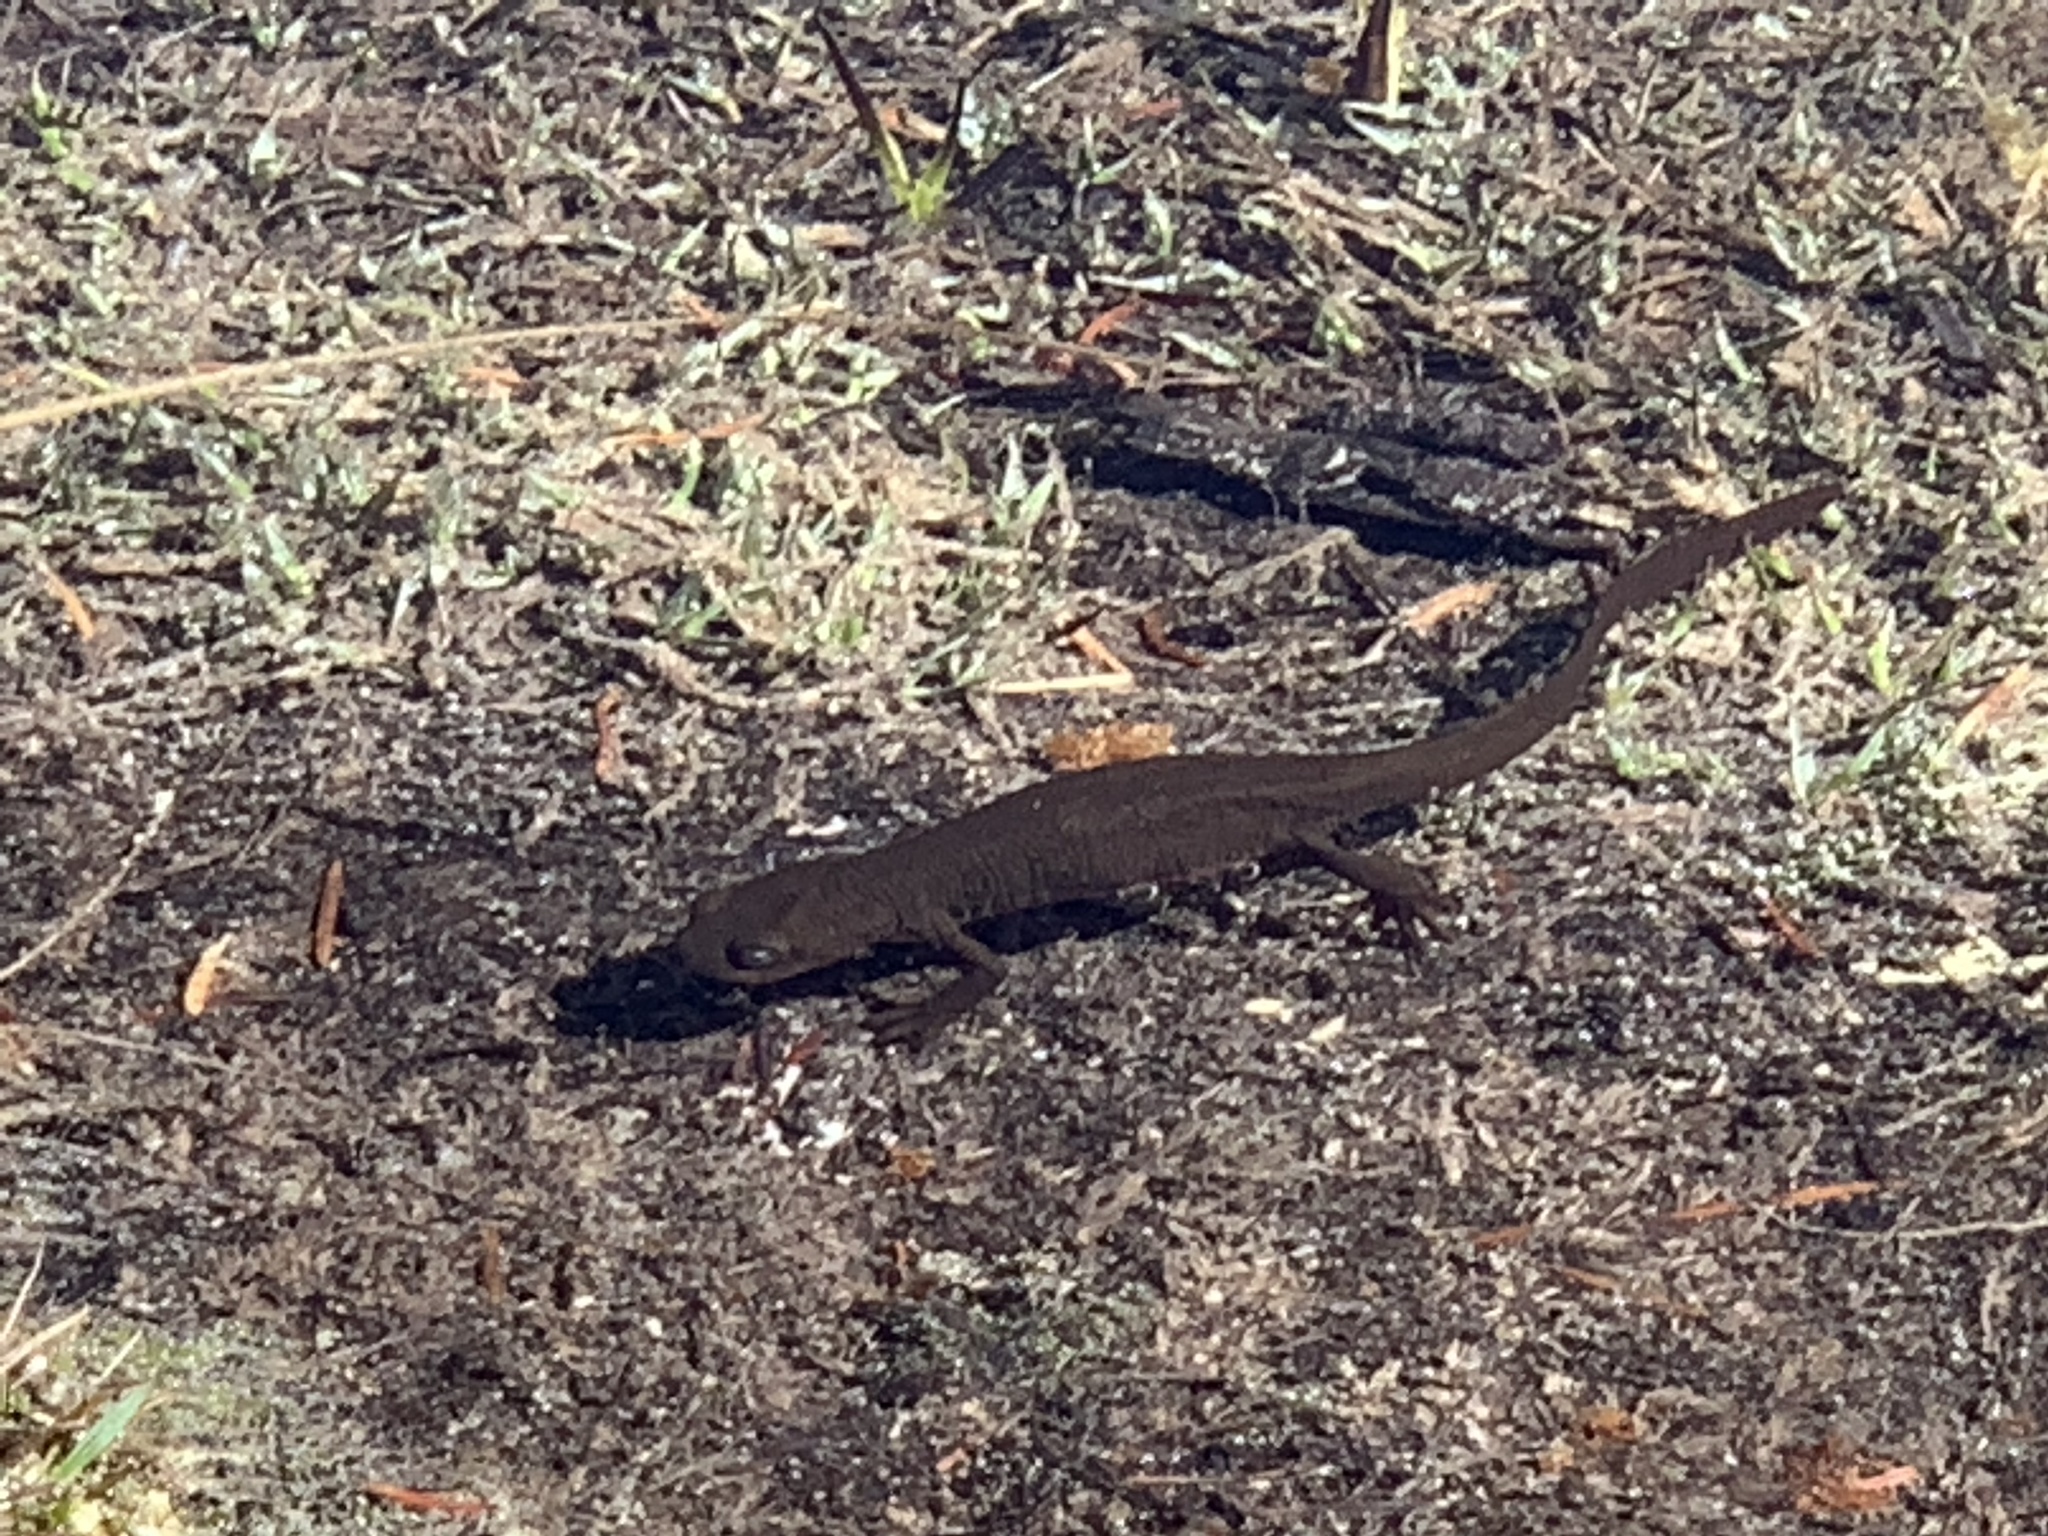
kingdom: Animalia
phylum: Chordata
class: Amphibia
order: Caudata
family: Salamandridae
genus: Taricha
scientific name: Taricha granulosa
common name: Roughskin newt
